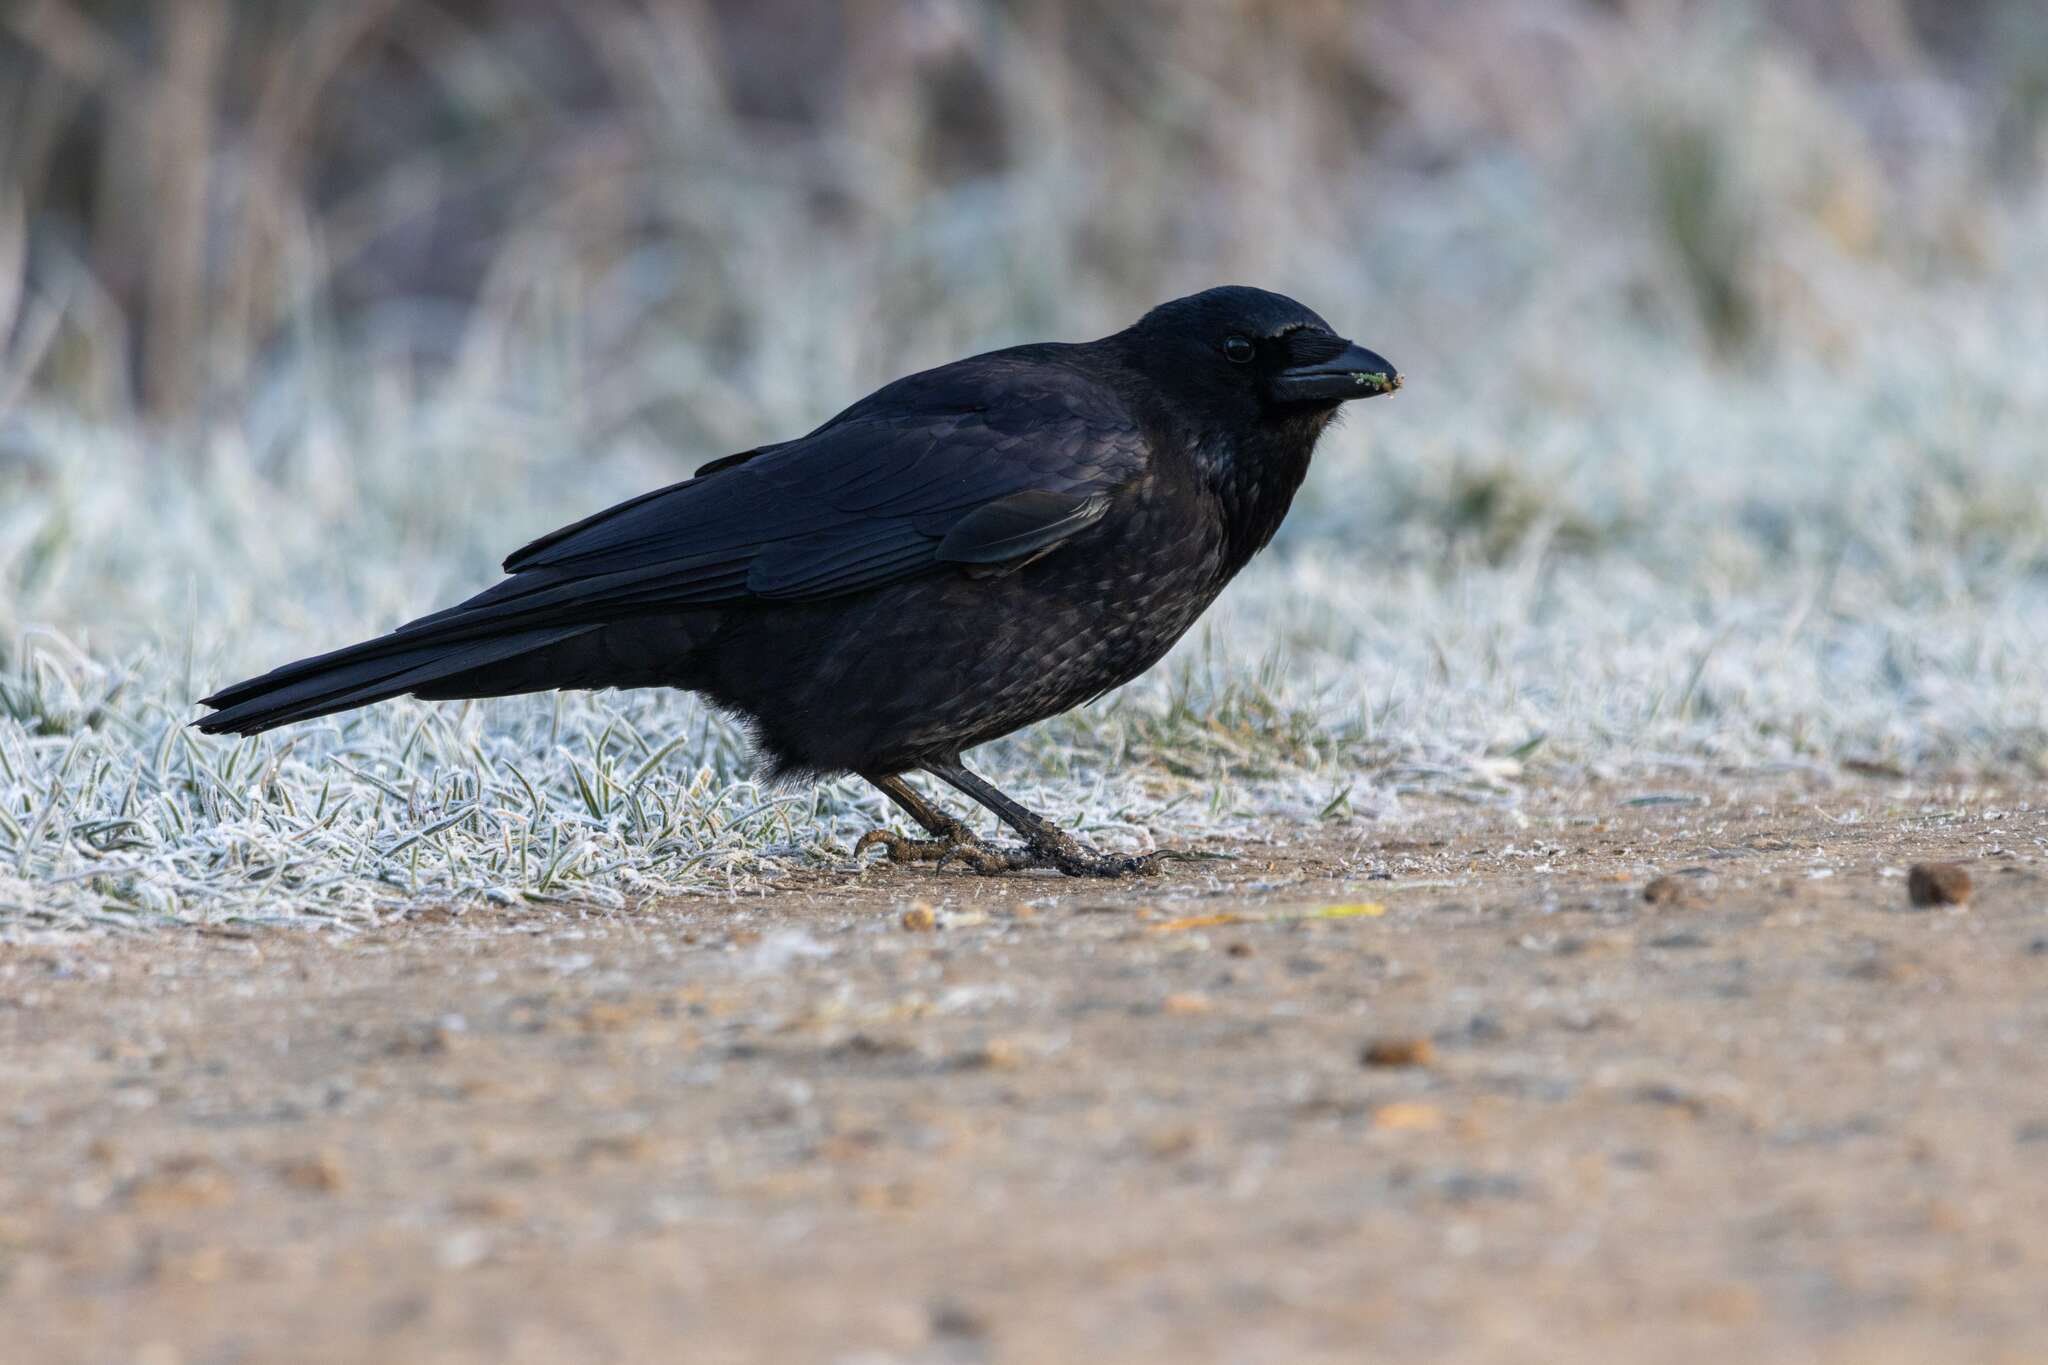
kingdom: Animalia
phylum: Chordata
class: Aves
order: Passeriformes
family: Corvidae
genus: Corvus
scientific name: Corvus corone
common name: Carrion crow
